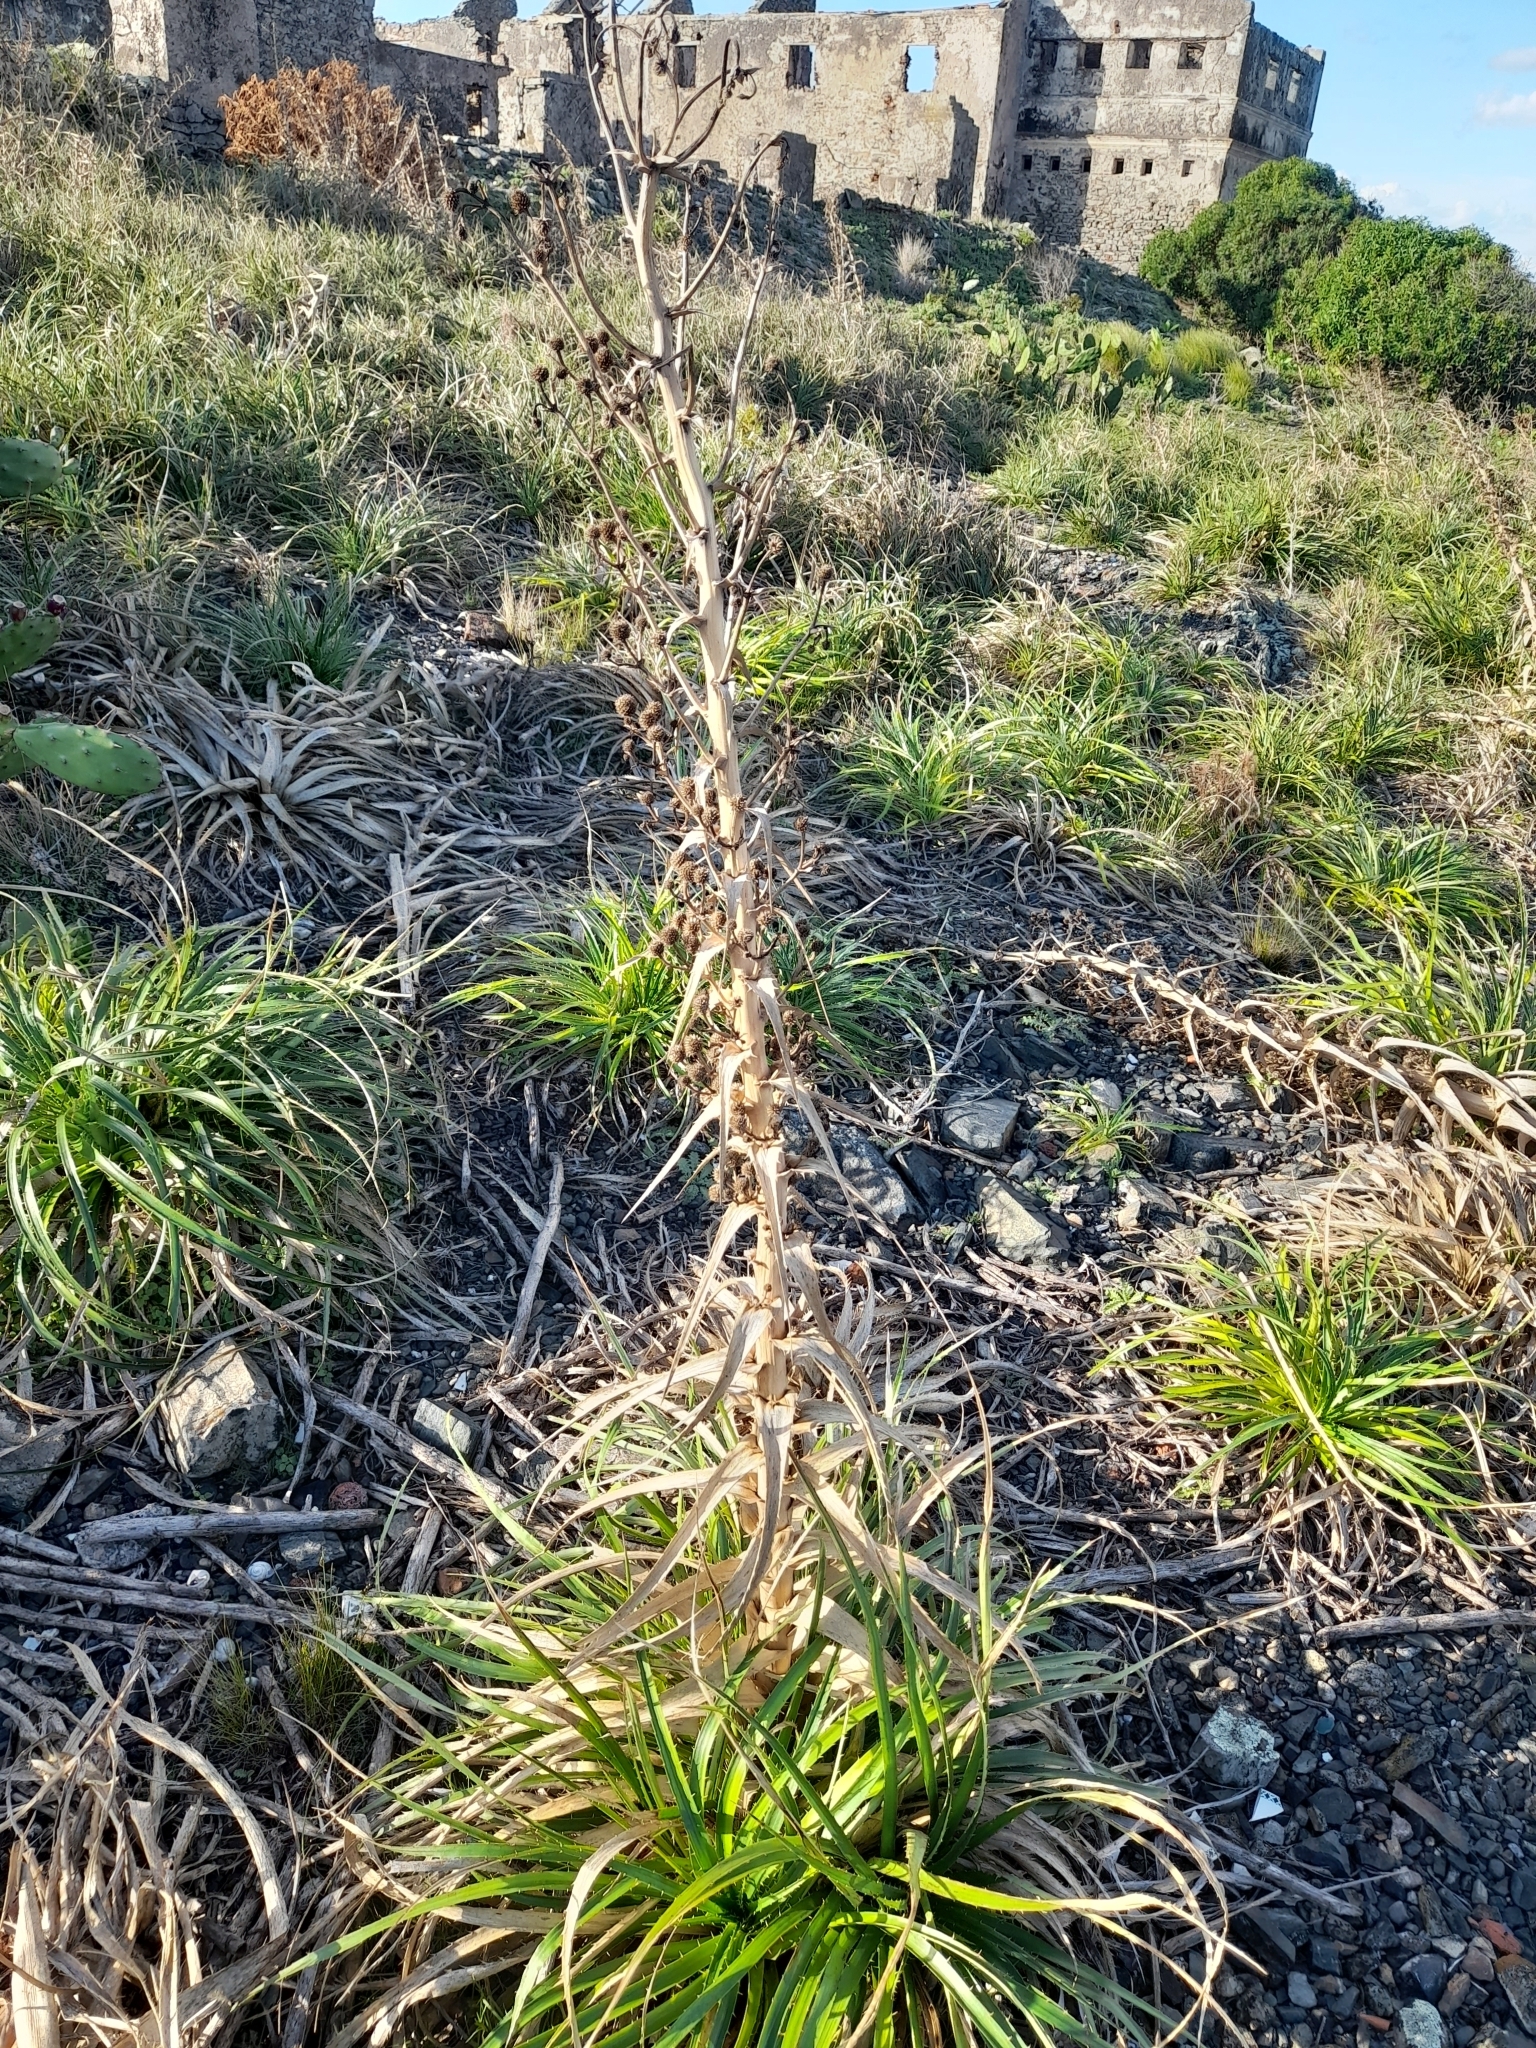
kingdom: Plantae
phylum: Tracheophyta
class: Magnoliopsida
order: Apiales
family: Apiaceae
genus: Eryngium
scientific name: Eryngium horridum
